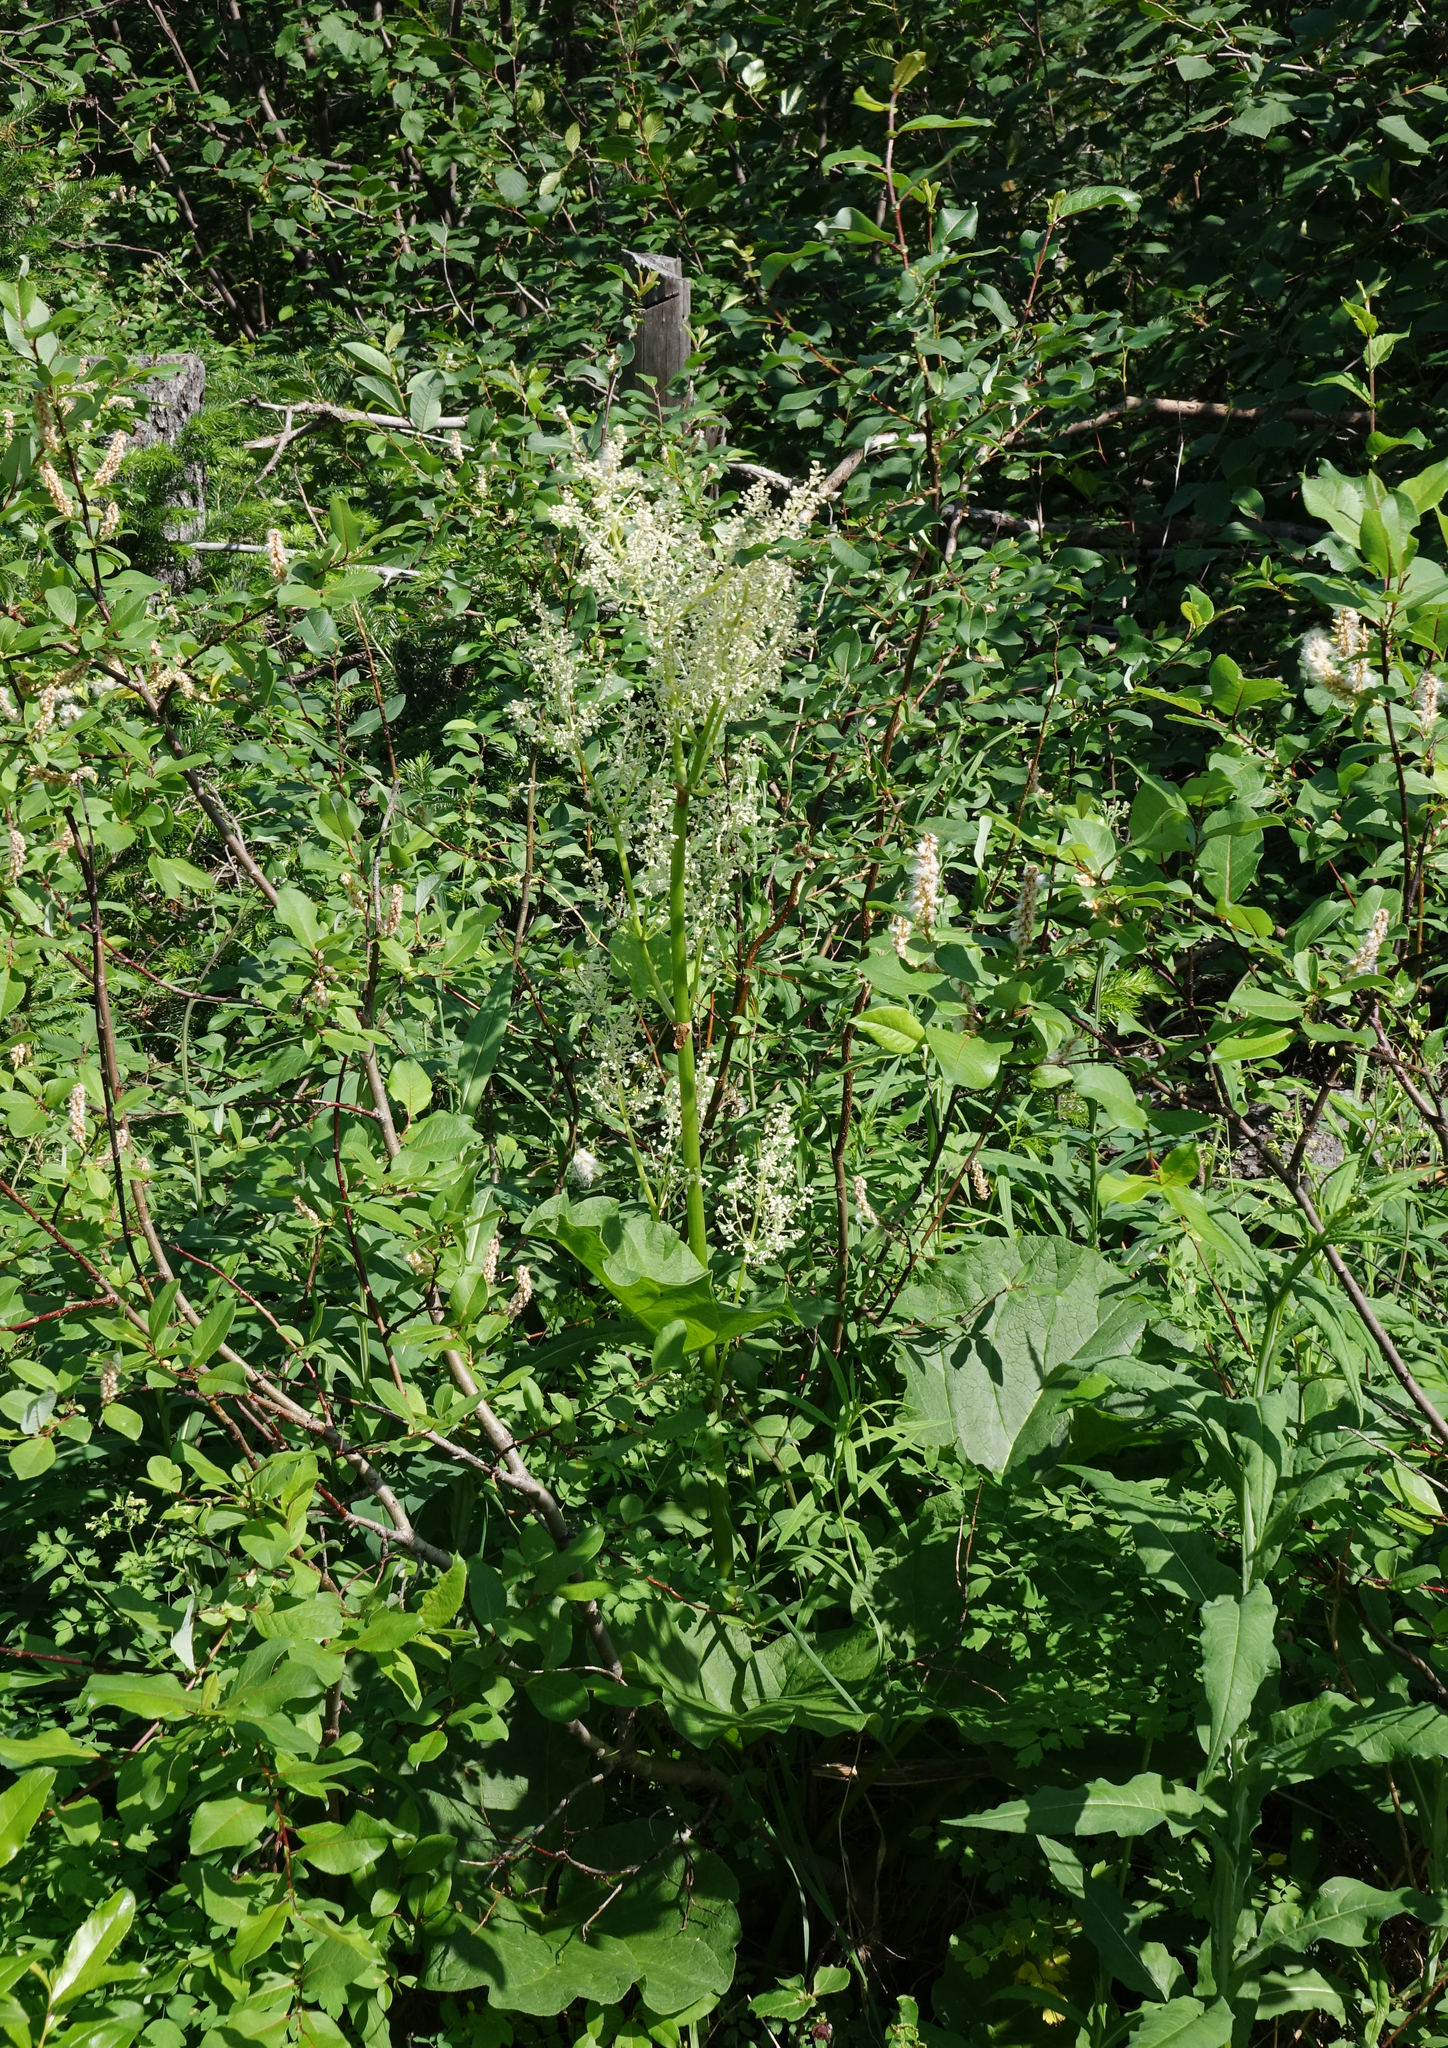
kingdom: Plantae
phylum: Tracheophyta
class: Magnoliopsida
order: Caryophyllales
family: Polygonaceae
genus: Rheum
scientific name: Rheum compactum
